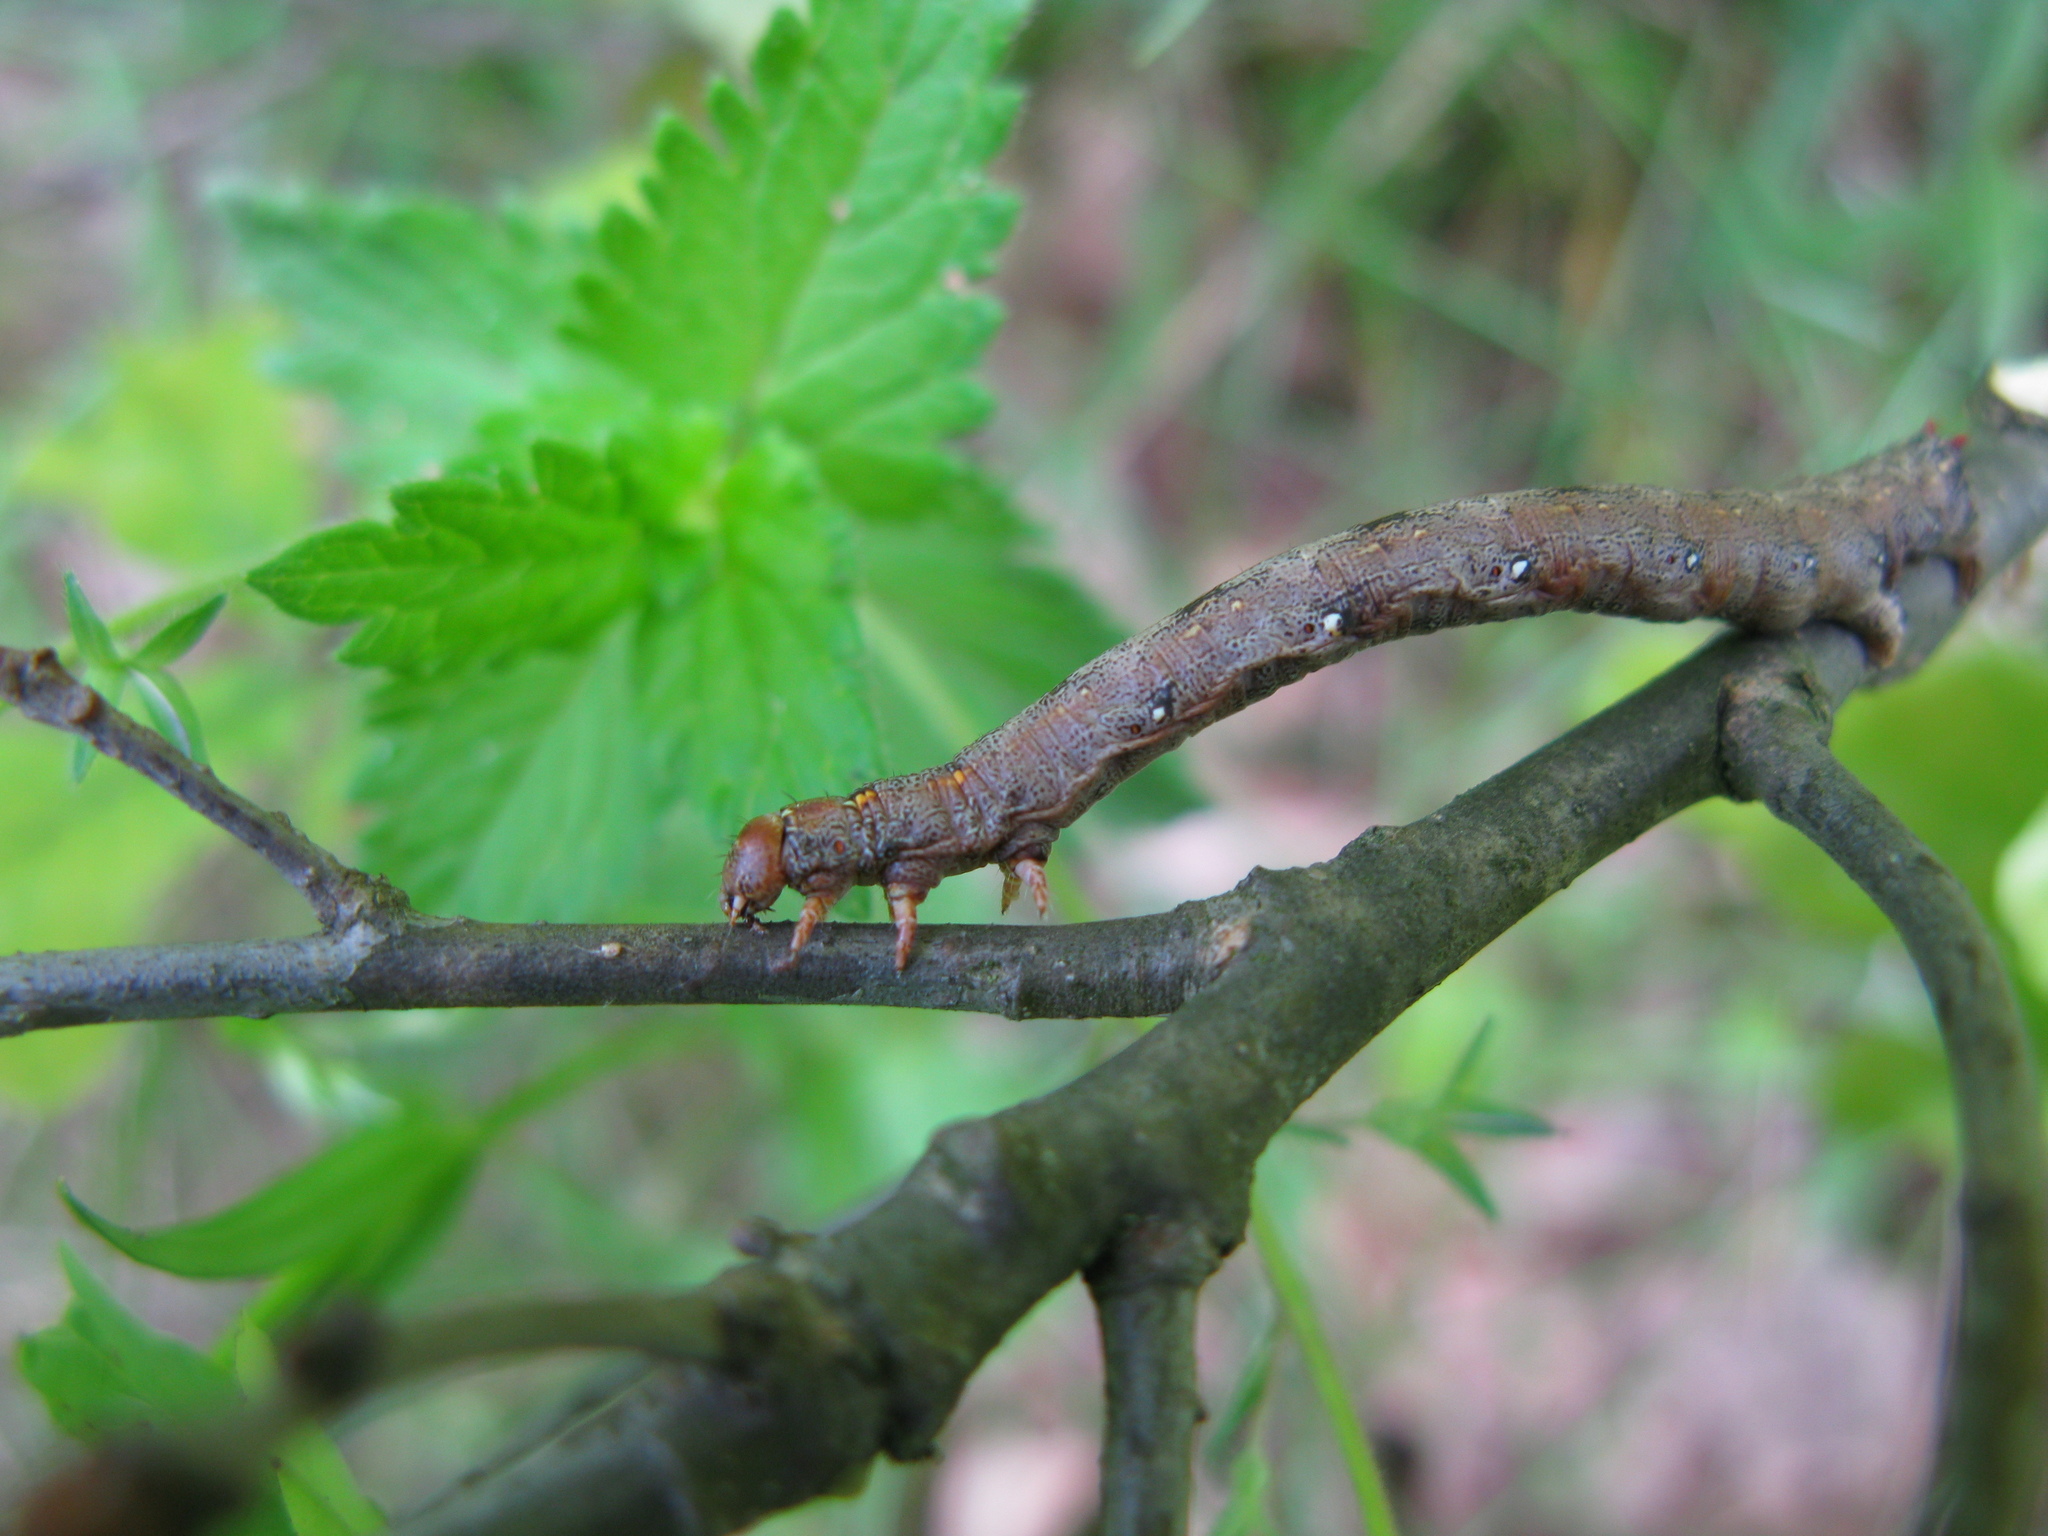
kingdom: Animalia
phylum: Arthropoda
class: Insecta
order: Lepidoptera
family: Geometridae
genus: Colotois
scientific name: Colotois pennaria
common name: Feathered thorn
